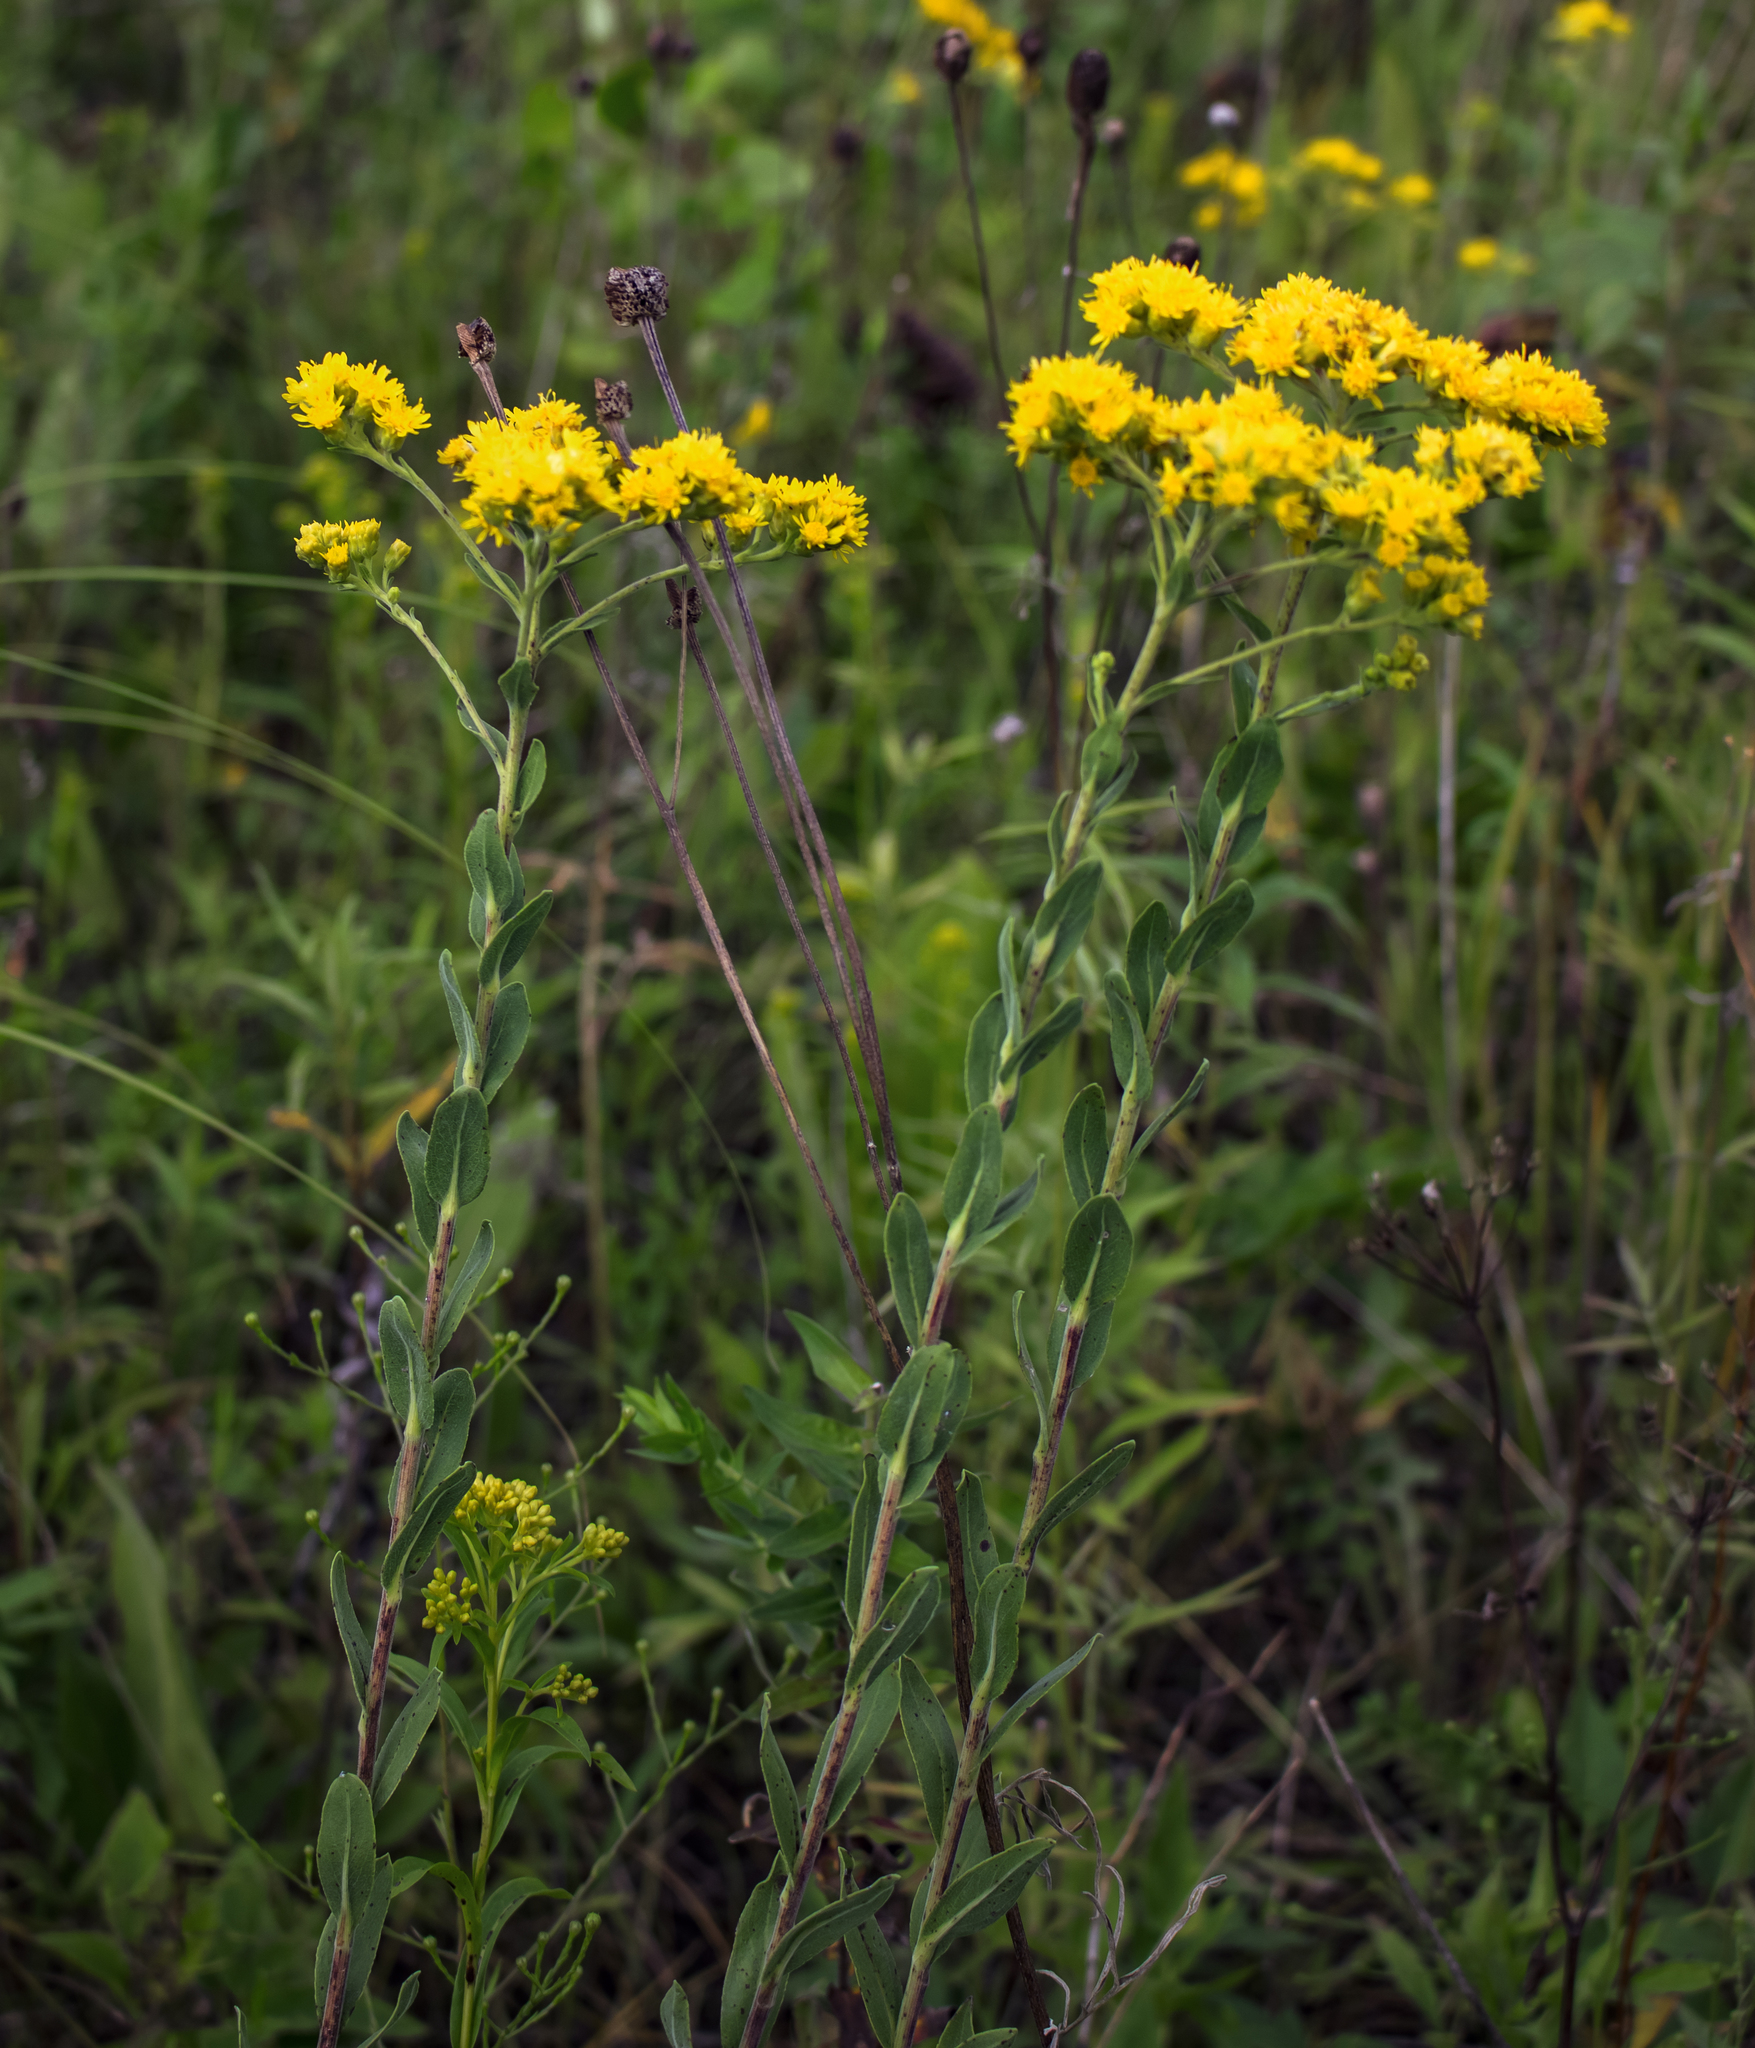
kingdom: Plantae
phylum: Tracheophyta
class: Magnoliopsida
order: Asterales
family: Asteraceae
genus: Solidago
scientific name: Solidago rigida
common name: Rigid goldenrod
